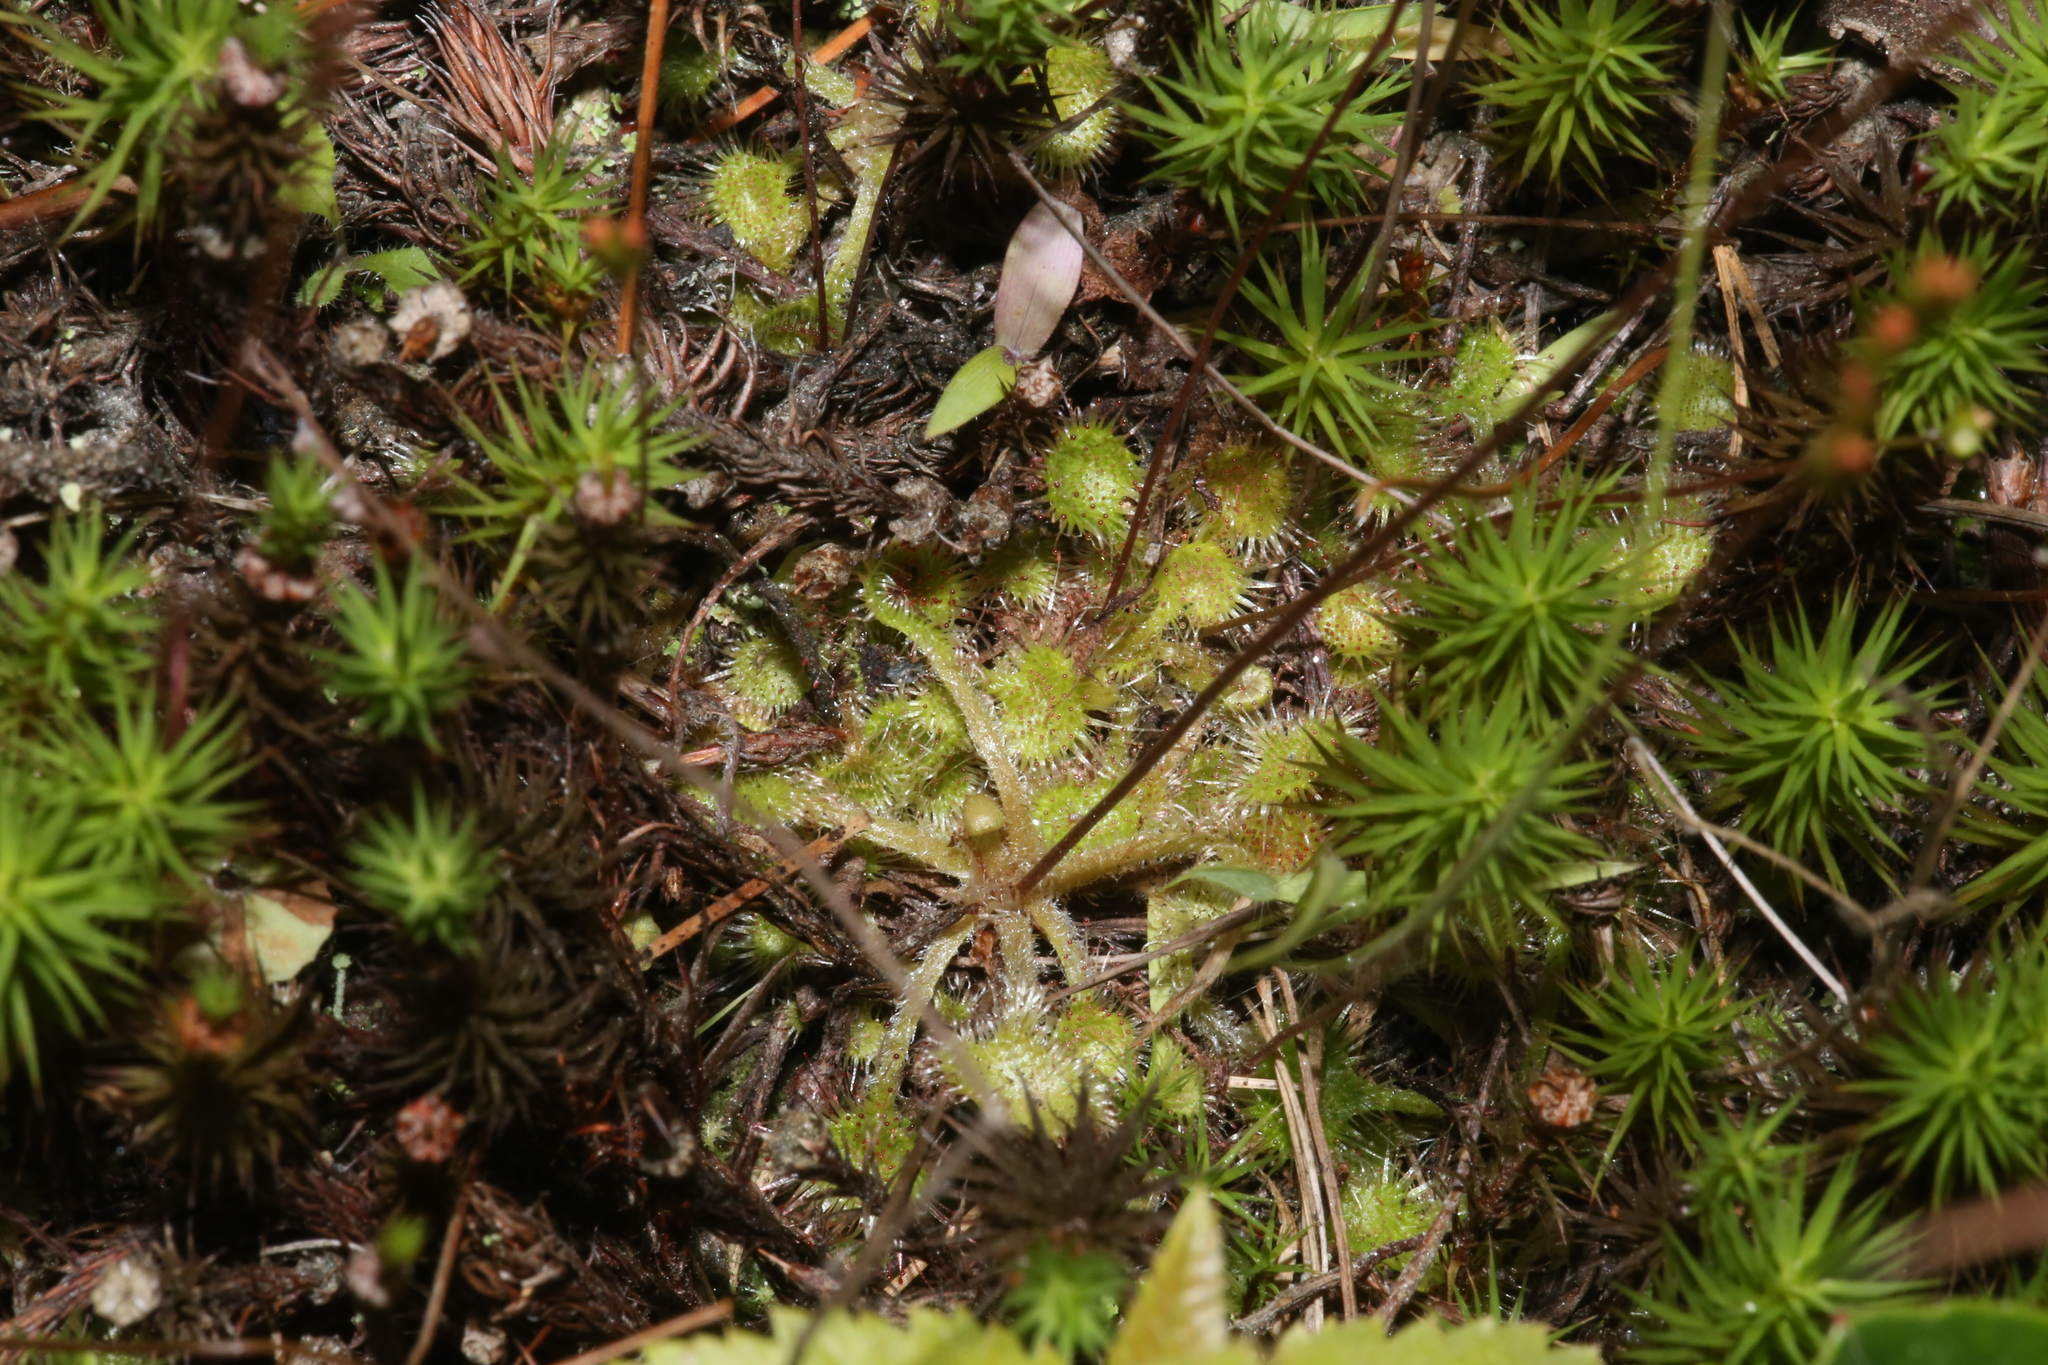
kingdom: Plantae
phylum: Tracheophyta
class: Magnoliopsida
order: Caryophyllales
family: Droseraceae
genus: Drosera
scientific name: Drosera rotundifolia
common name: Round-leaved sundew
